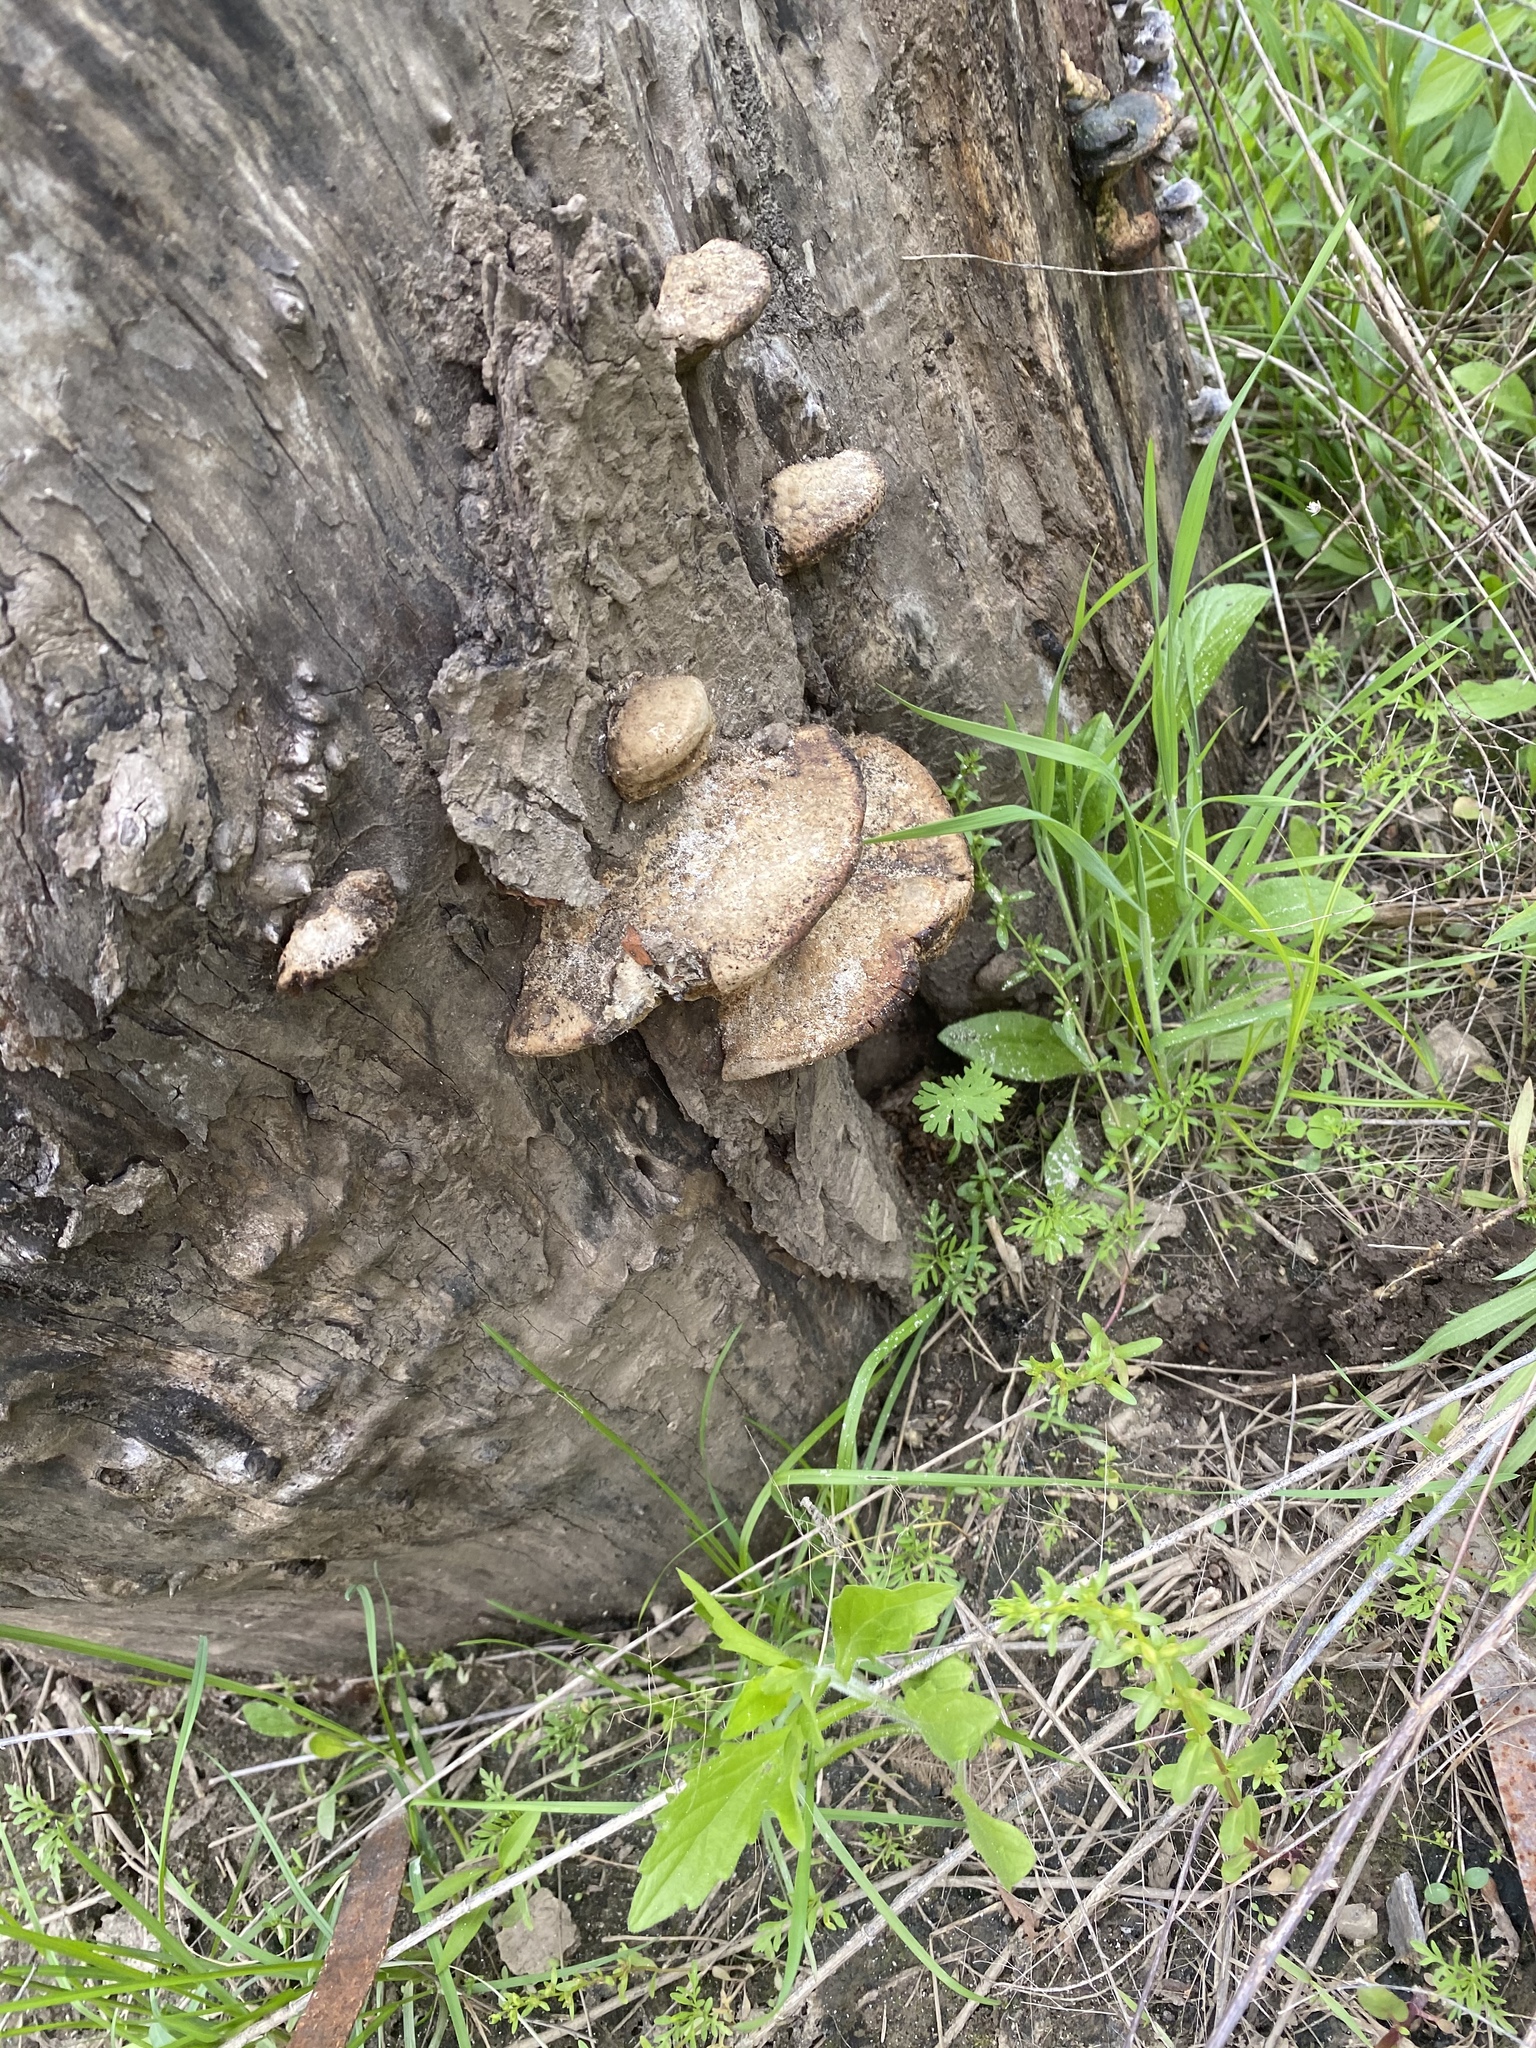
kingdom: Fungi
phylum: Basidiomycota
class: Agaricomycetes
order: Polyporales
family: Polyporaceae
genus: Cerioporus
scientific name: Cerioporus squamosus
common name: Dryad's saddle
